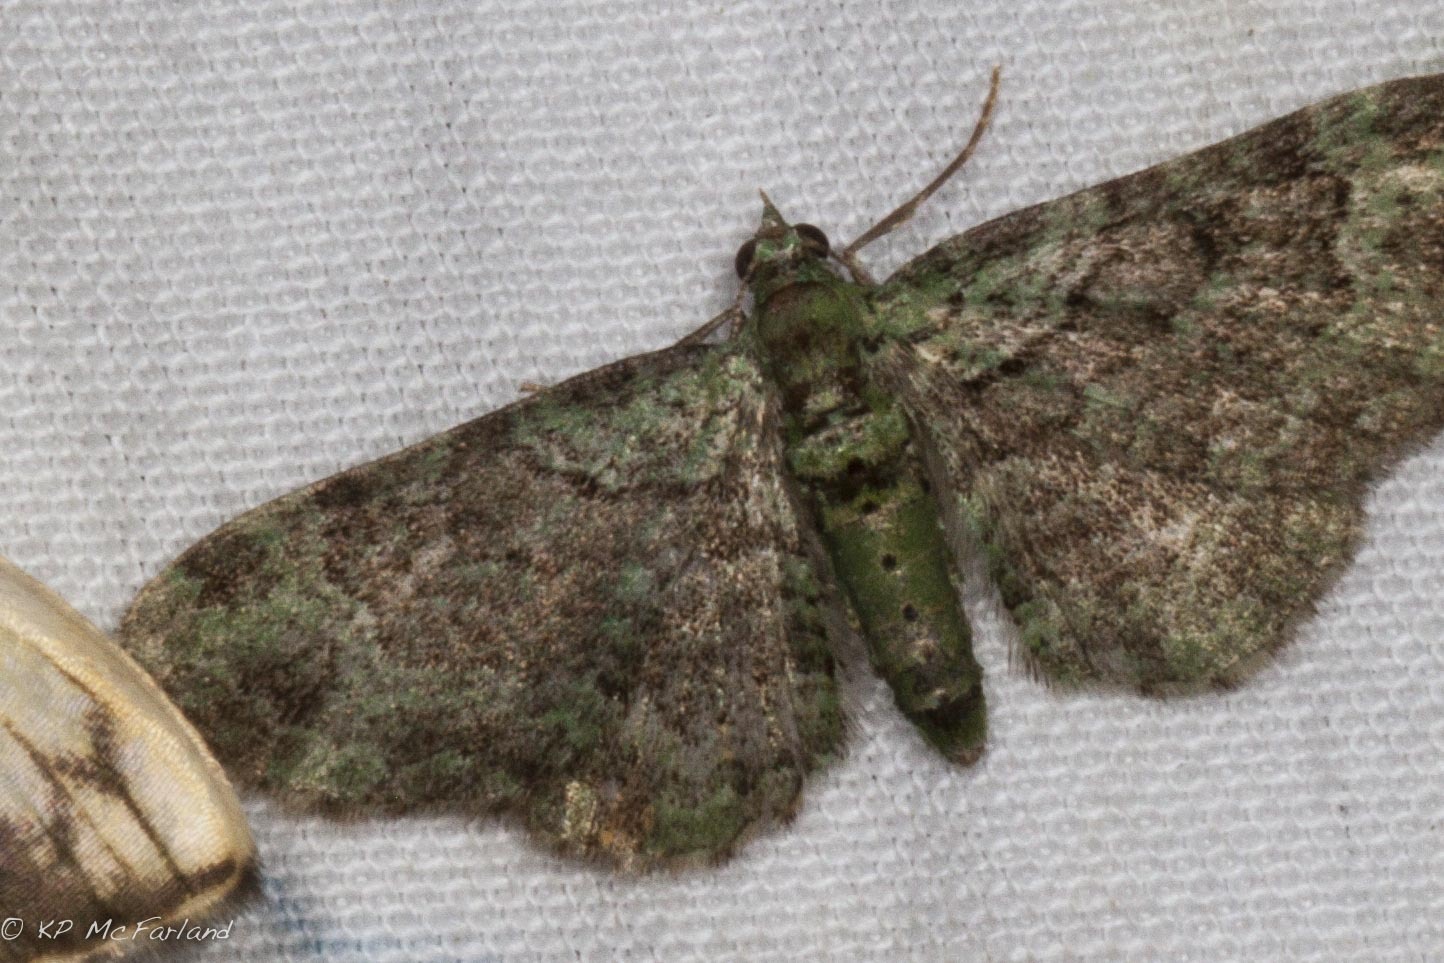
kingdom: Animalia
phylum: Arthropoda
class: Insecta
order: Lepidoptera
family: Geometridae
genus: Pasiphila
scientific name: Pasiphila rectangulata
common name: Green pug
